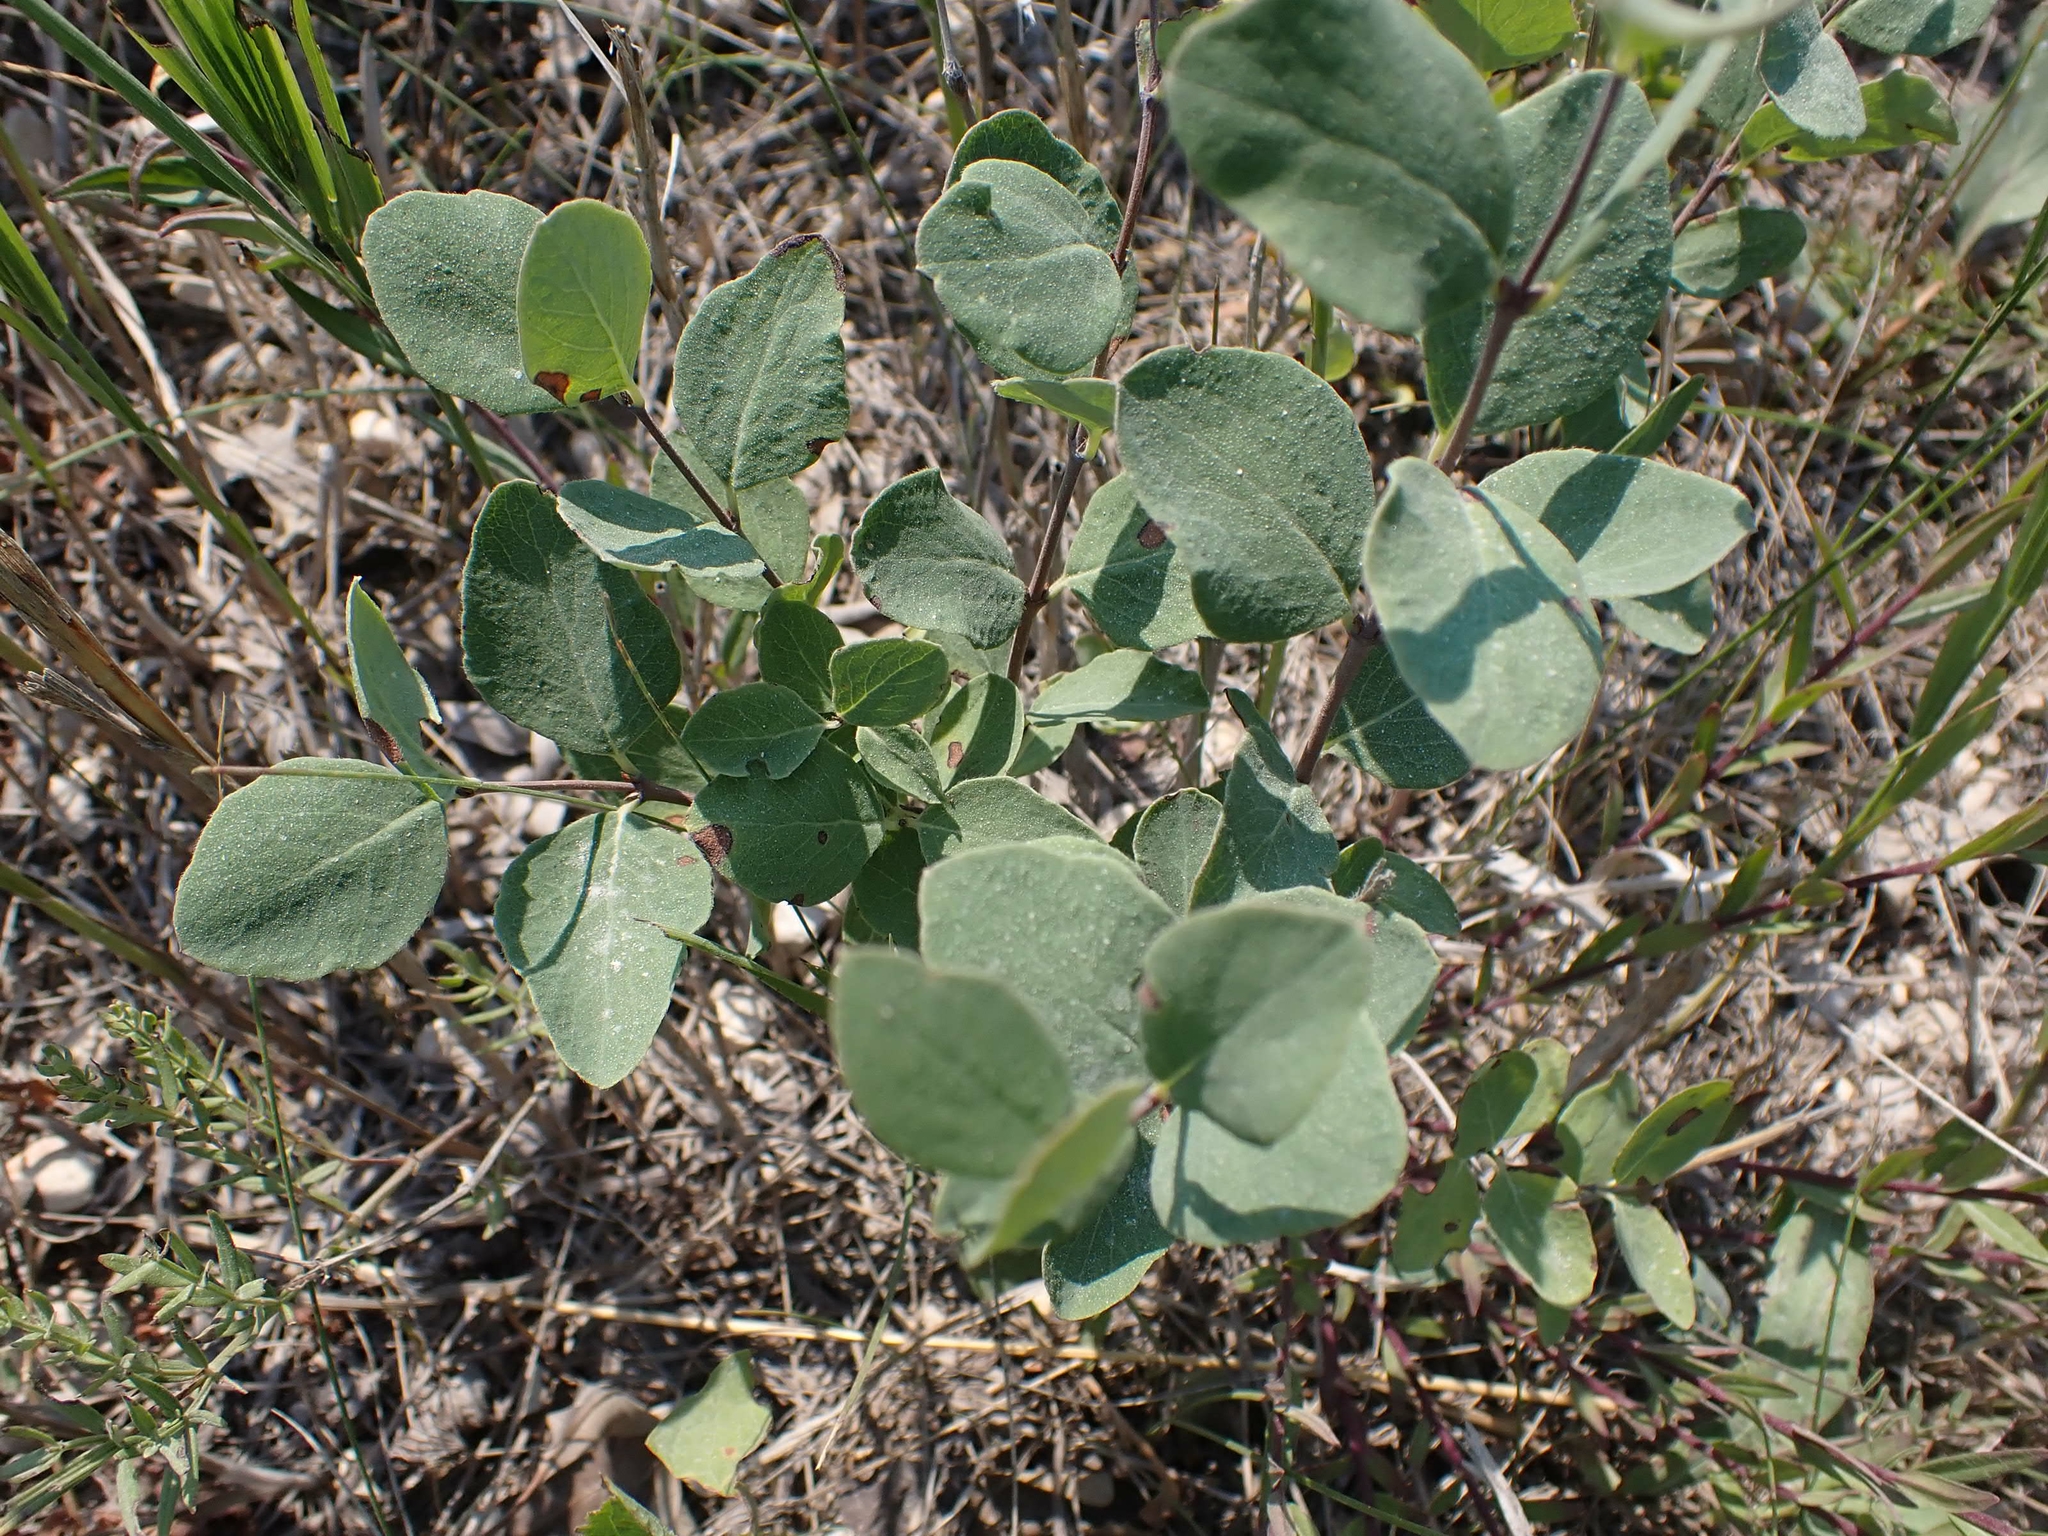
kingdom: Plantae
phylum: Tracheophyta
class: Magnoliopsida
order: Dipsacales
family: Caprifoliaceae
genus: Symphoricarpos
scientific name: Symphoricarpos occidentalis
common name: Wolfberry
